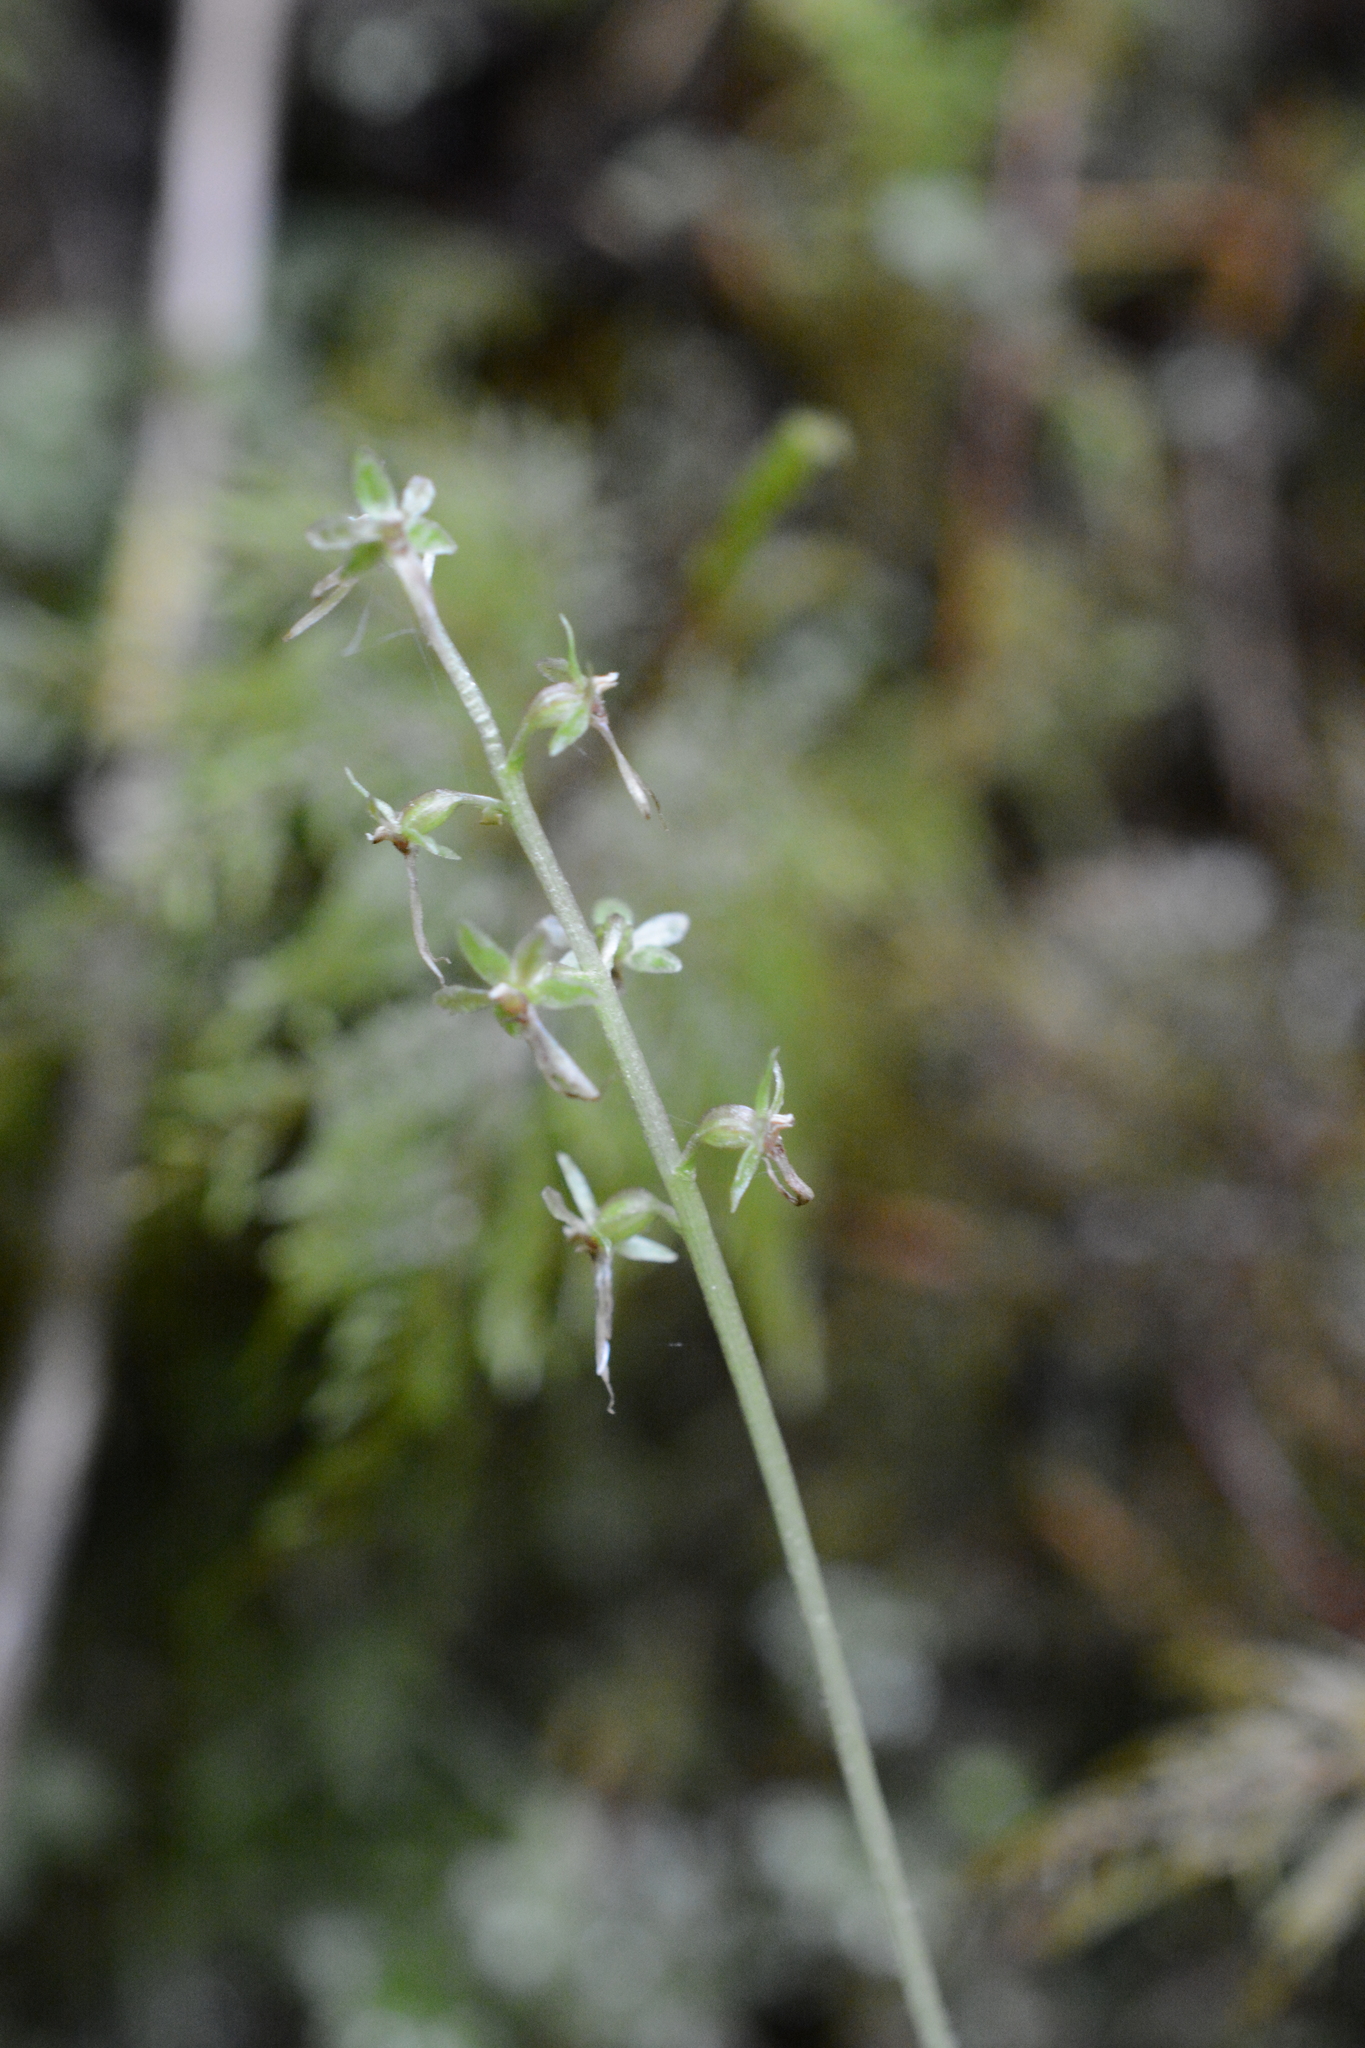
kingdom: Plantae
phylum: Tracheophyta
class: Liliopsida
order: Asparagales
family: Orchidaceae
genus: Neottia
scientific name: Neottia cordata
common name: Lesser twayblade
